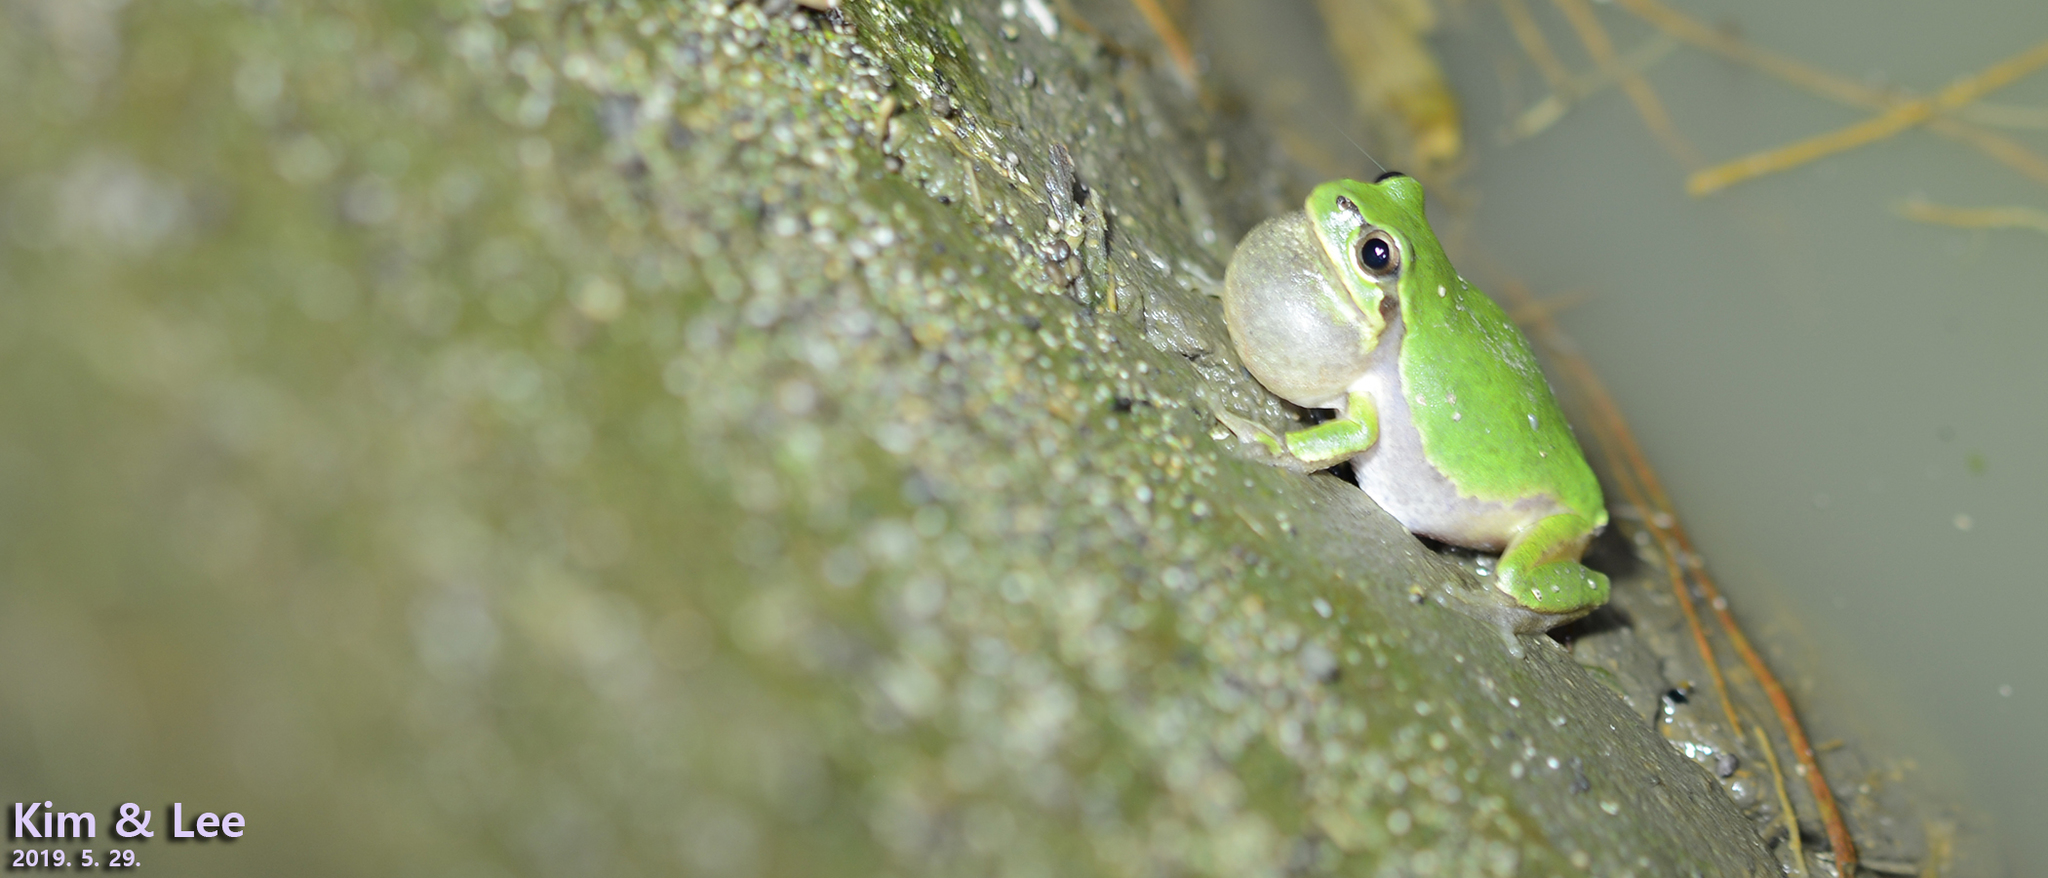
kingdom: Animalia
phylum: Chordata
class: Amphibia
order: Anura
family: Hylidae
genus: Dryophytes
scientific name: Dryophytes japonicus
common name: Japanese treefrog
